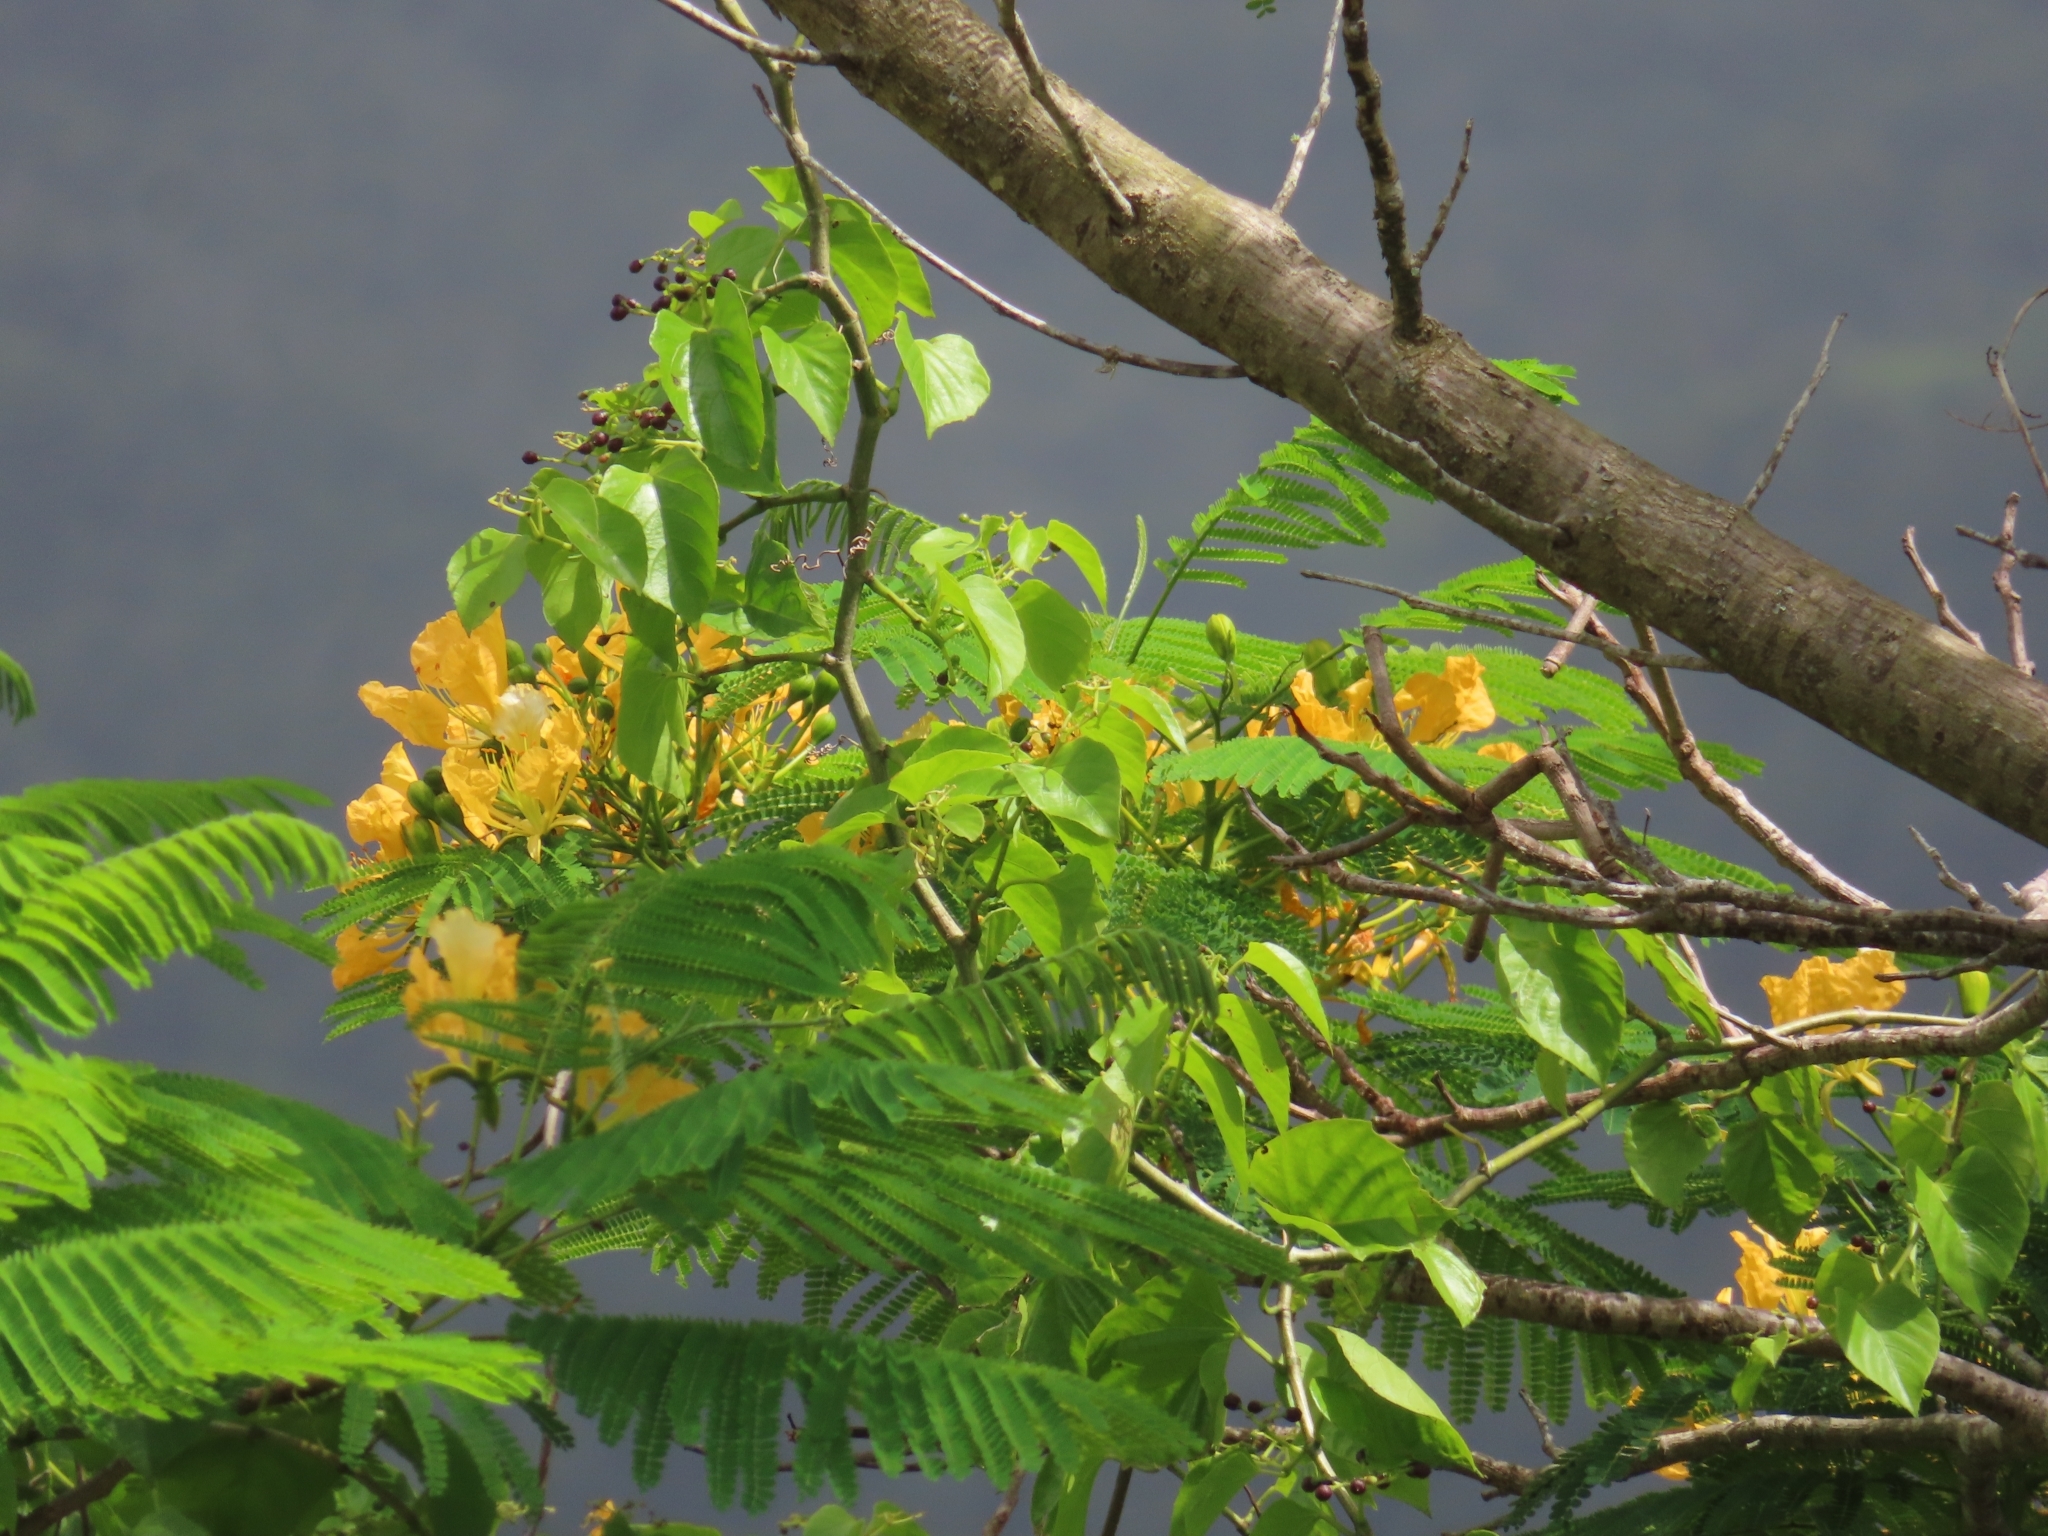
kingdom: Plantae
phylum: Tracheophyta
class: Magnoliopsida
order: Fabales
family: Fabaceae
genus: Delonix
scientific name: Delonix regia
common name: Royal poinciana
